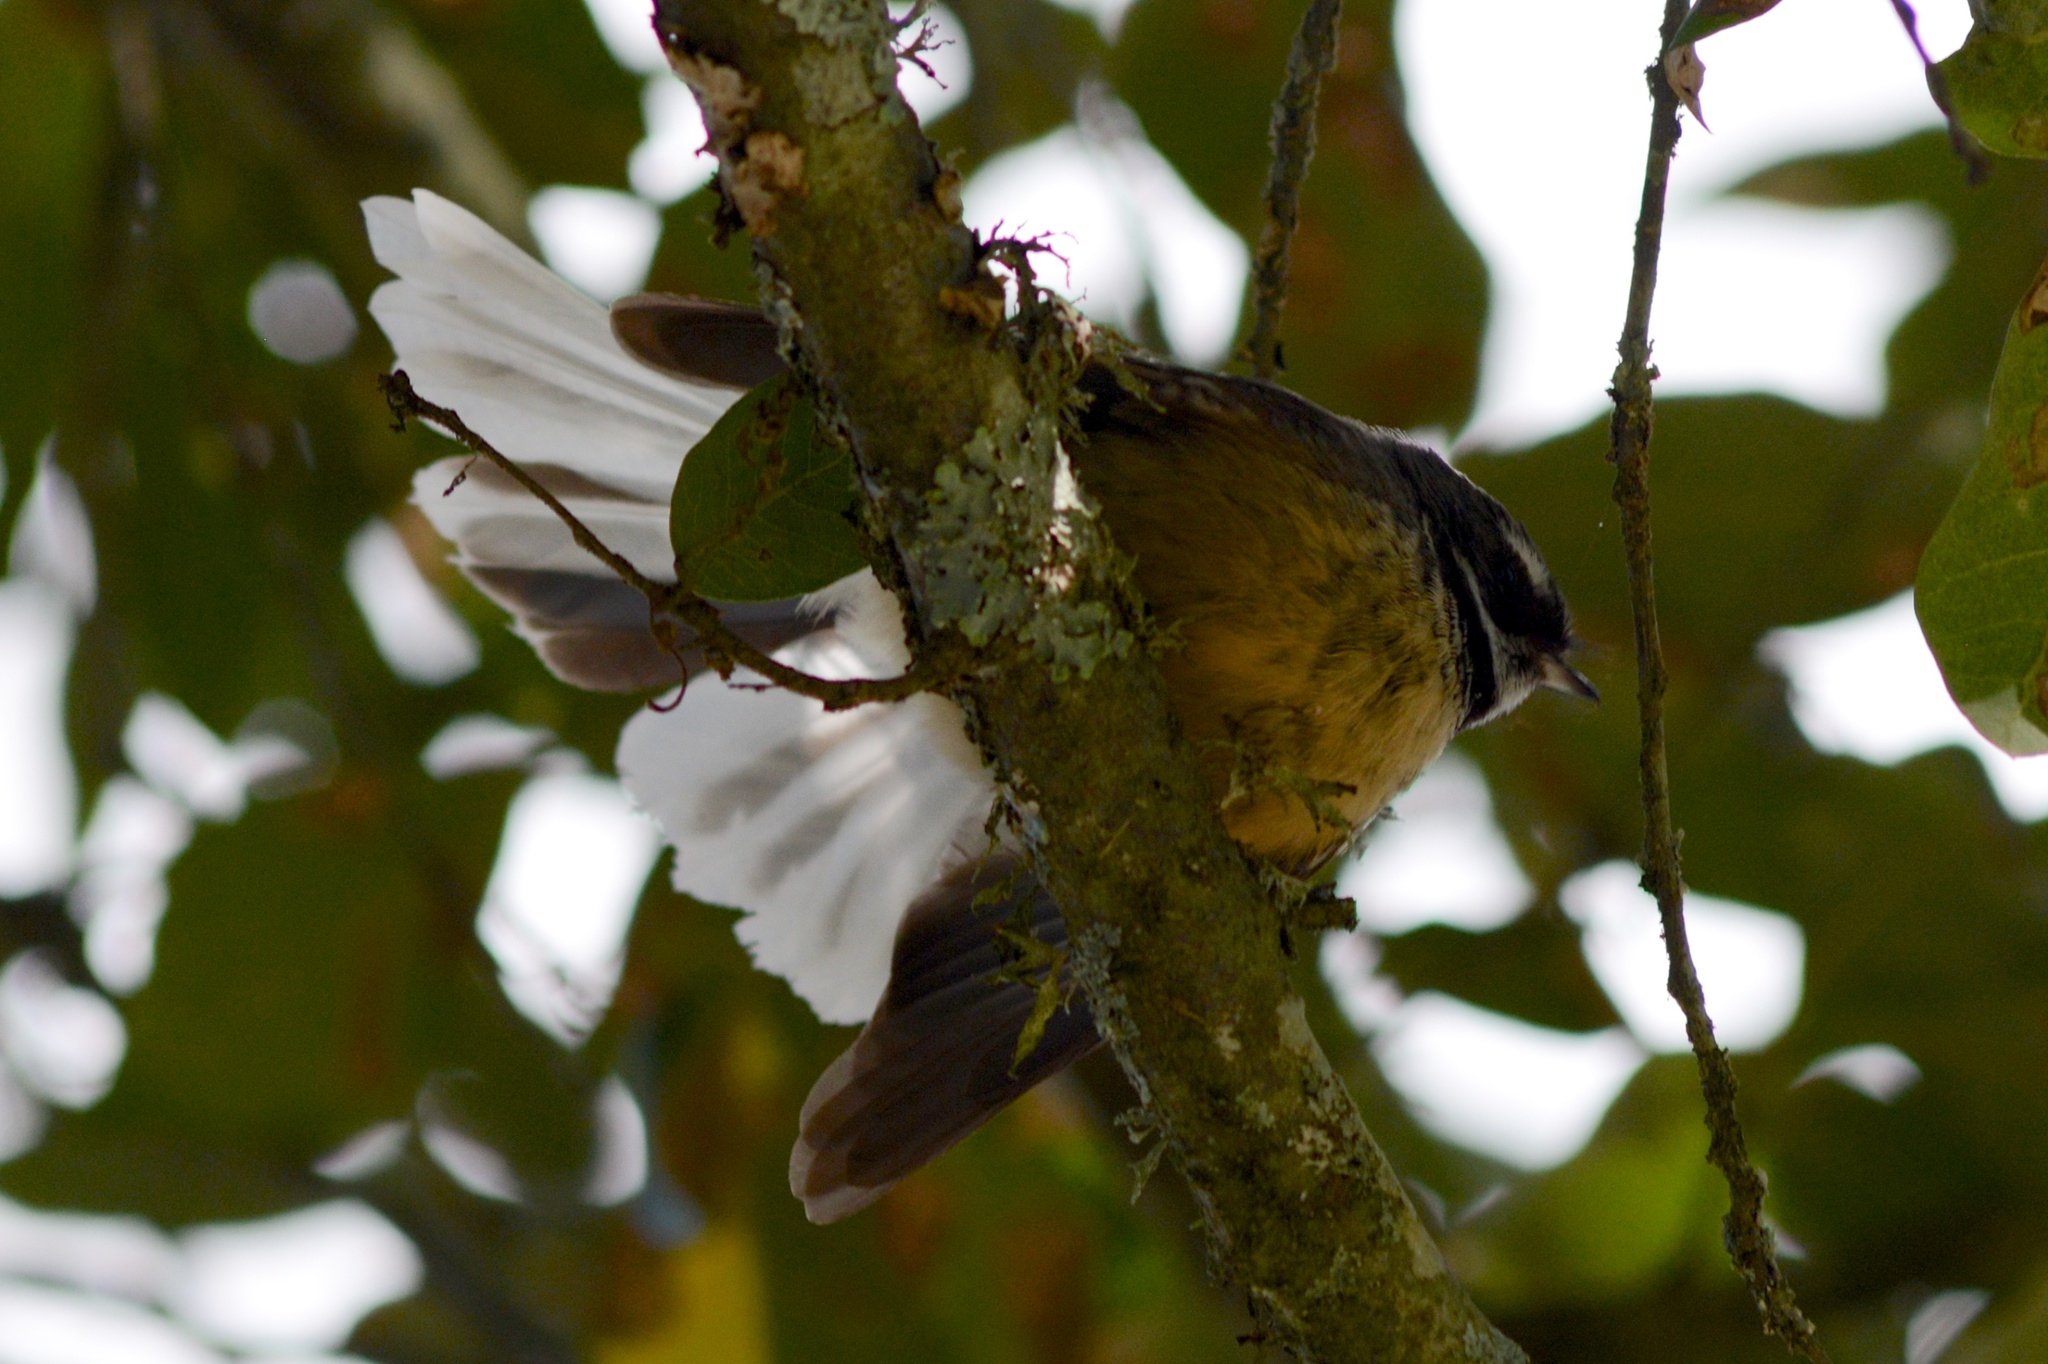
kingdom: Animalia
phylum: Chordata
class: Aves
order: Passeriformes
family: Rhipiduridae
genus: Rhipidura
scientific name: Rhipidura fuliginosa
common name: New zealand fantail
